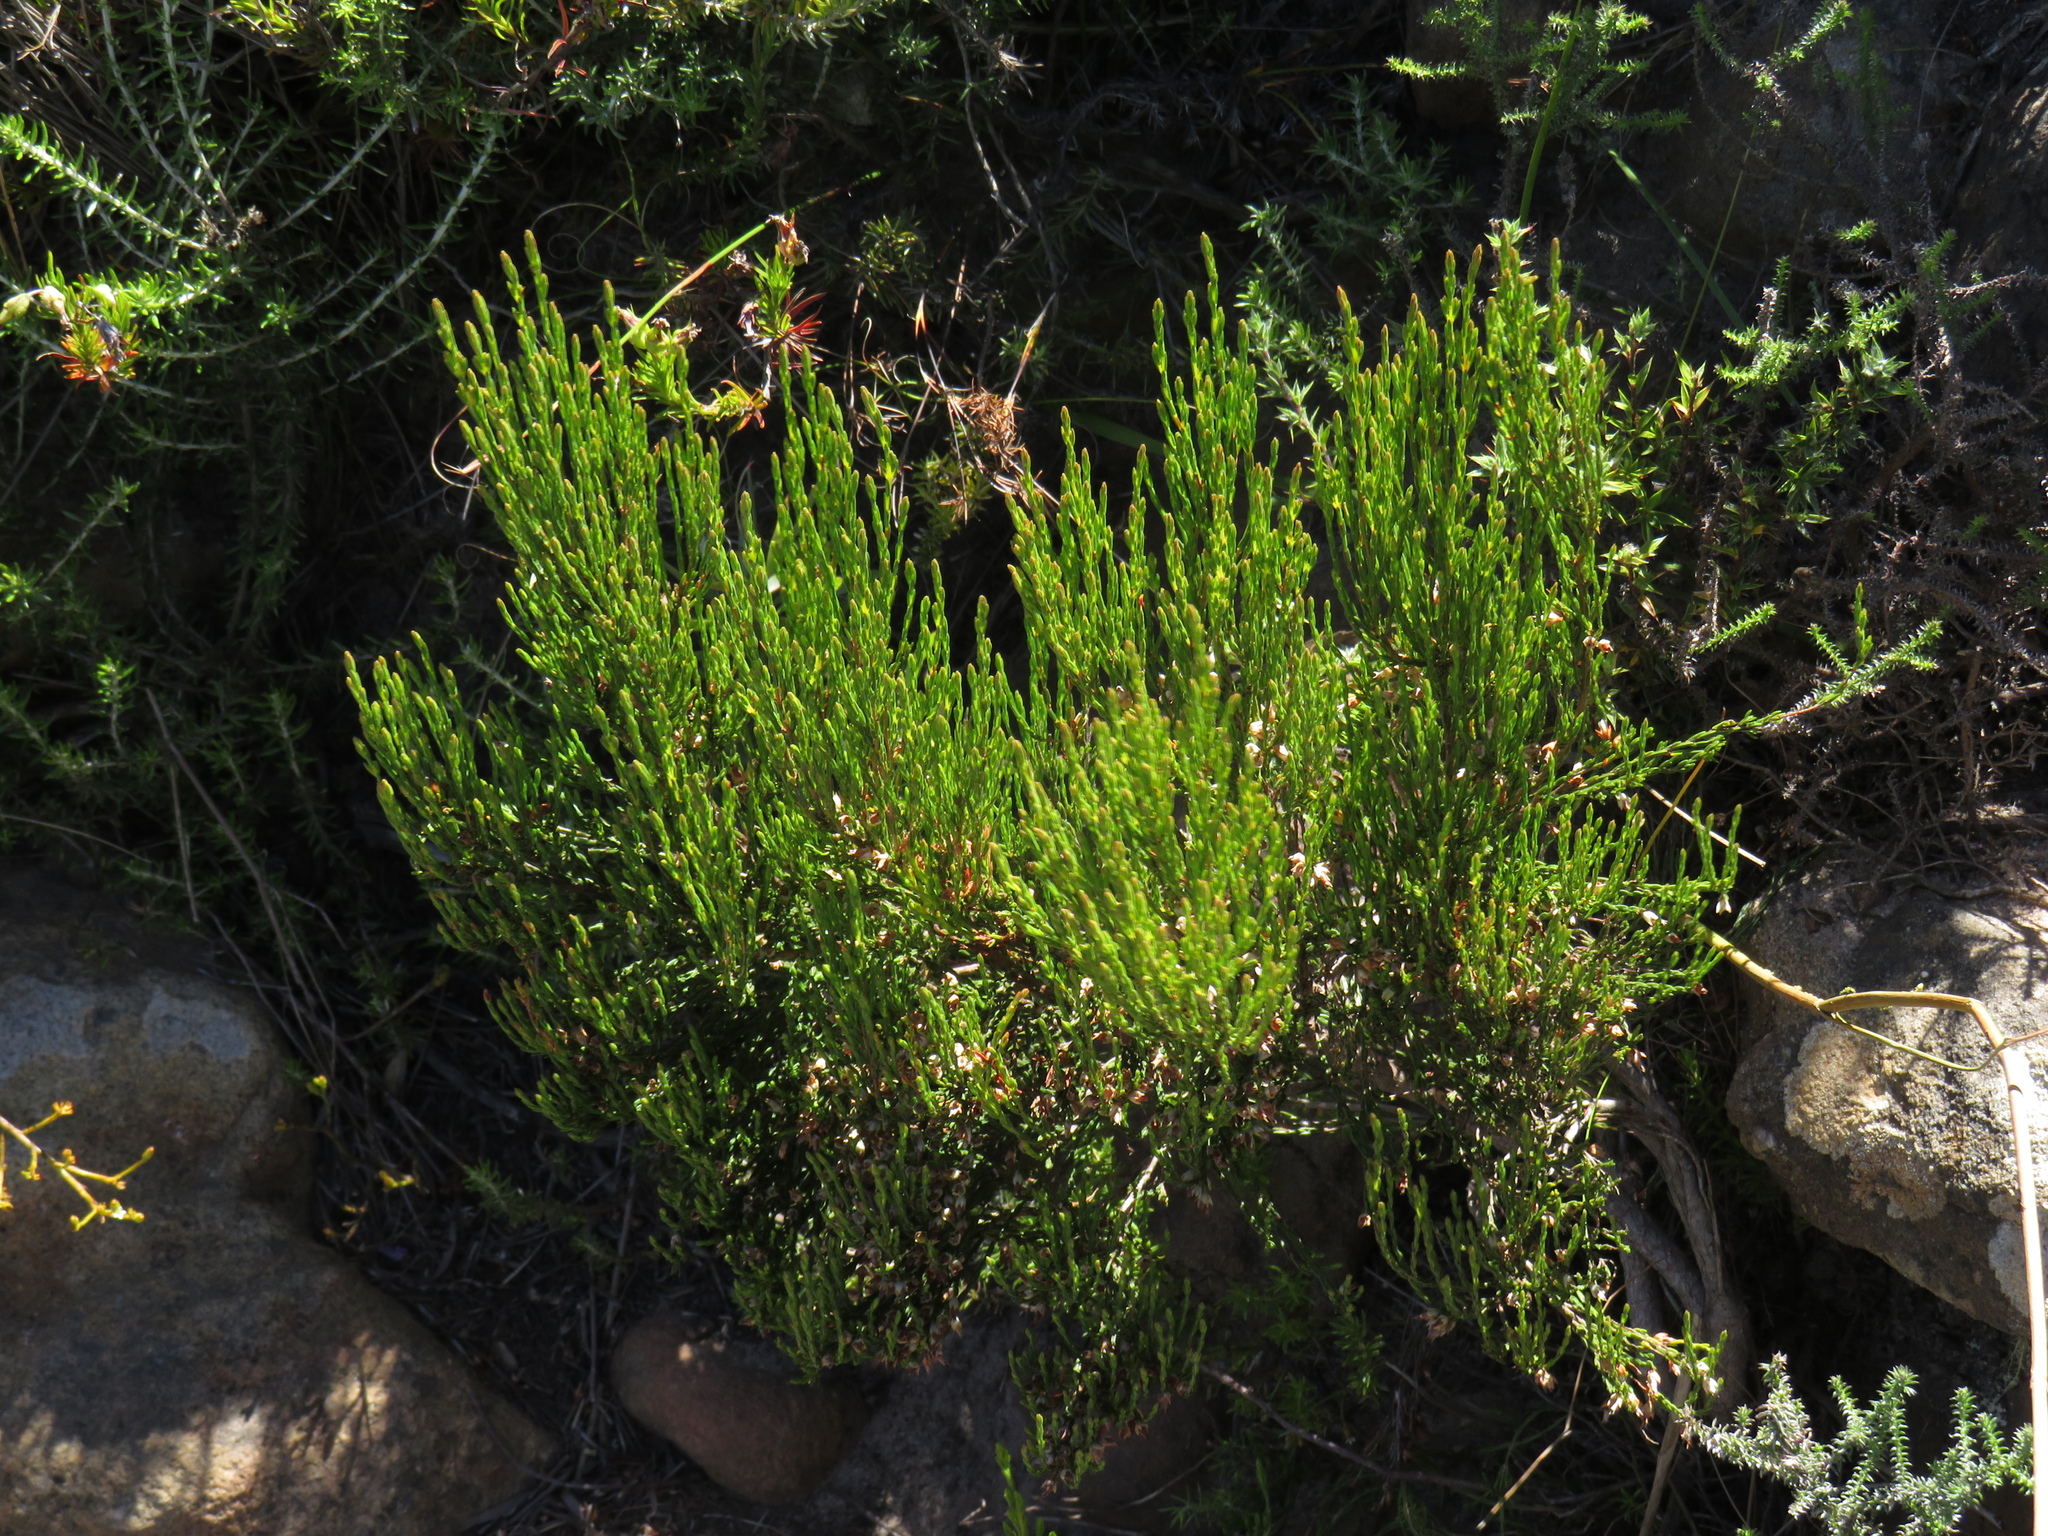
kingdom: Plantae
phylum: Tracheophyta
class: Magnoliopsida
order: Ericales
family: Ericaceae
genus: Erica
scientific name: Erica lutea
